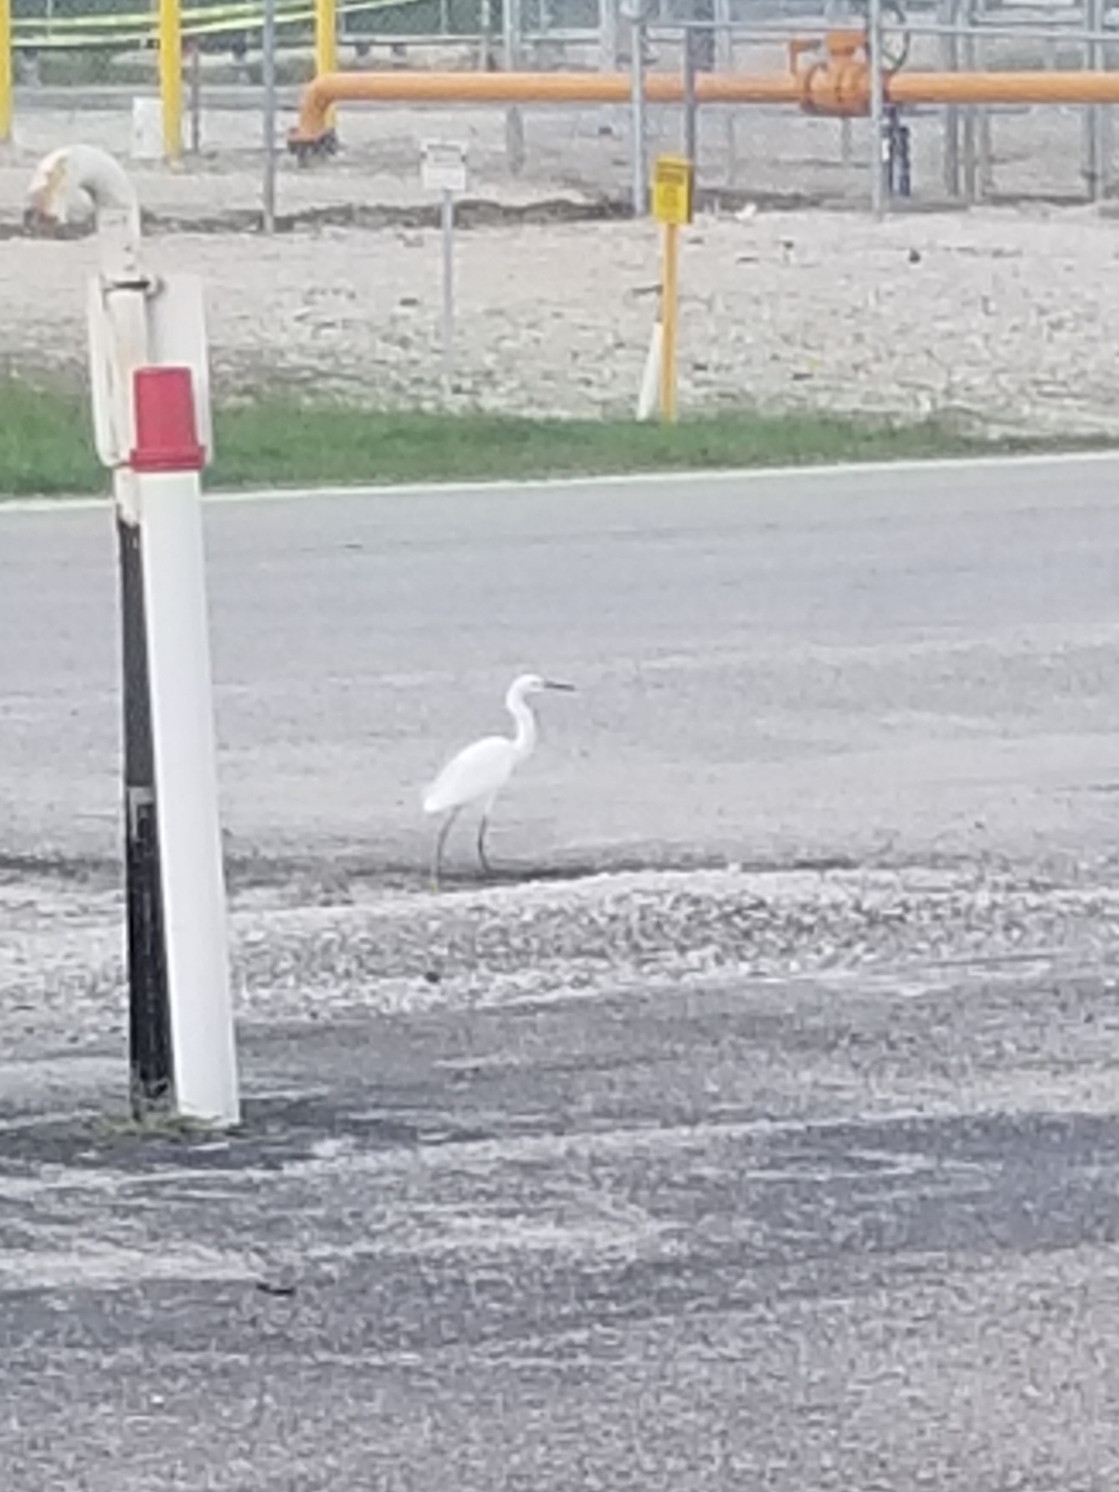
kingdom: Animalia
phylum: Chordata
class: Aves
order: Pelecaniformes
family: Ardeidae
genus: Egretta
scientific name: Egretta thula
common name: Snowy egret
